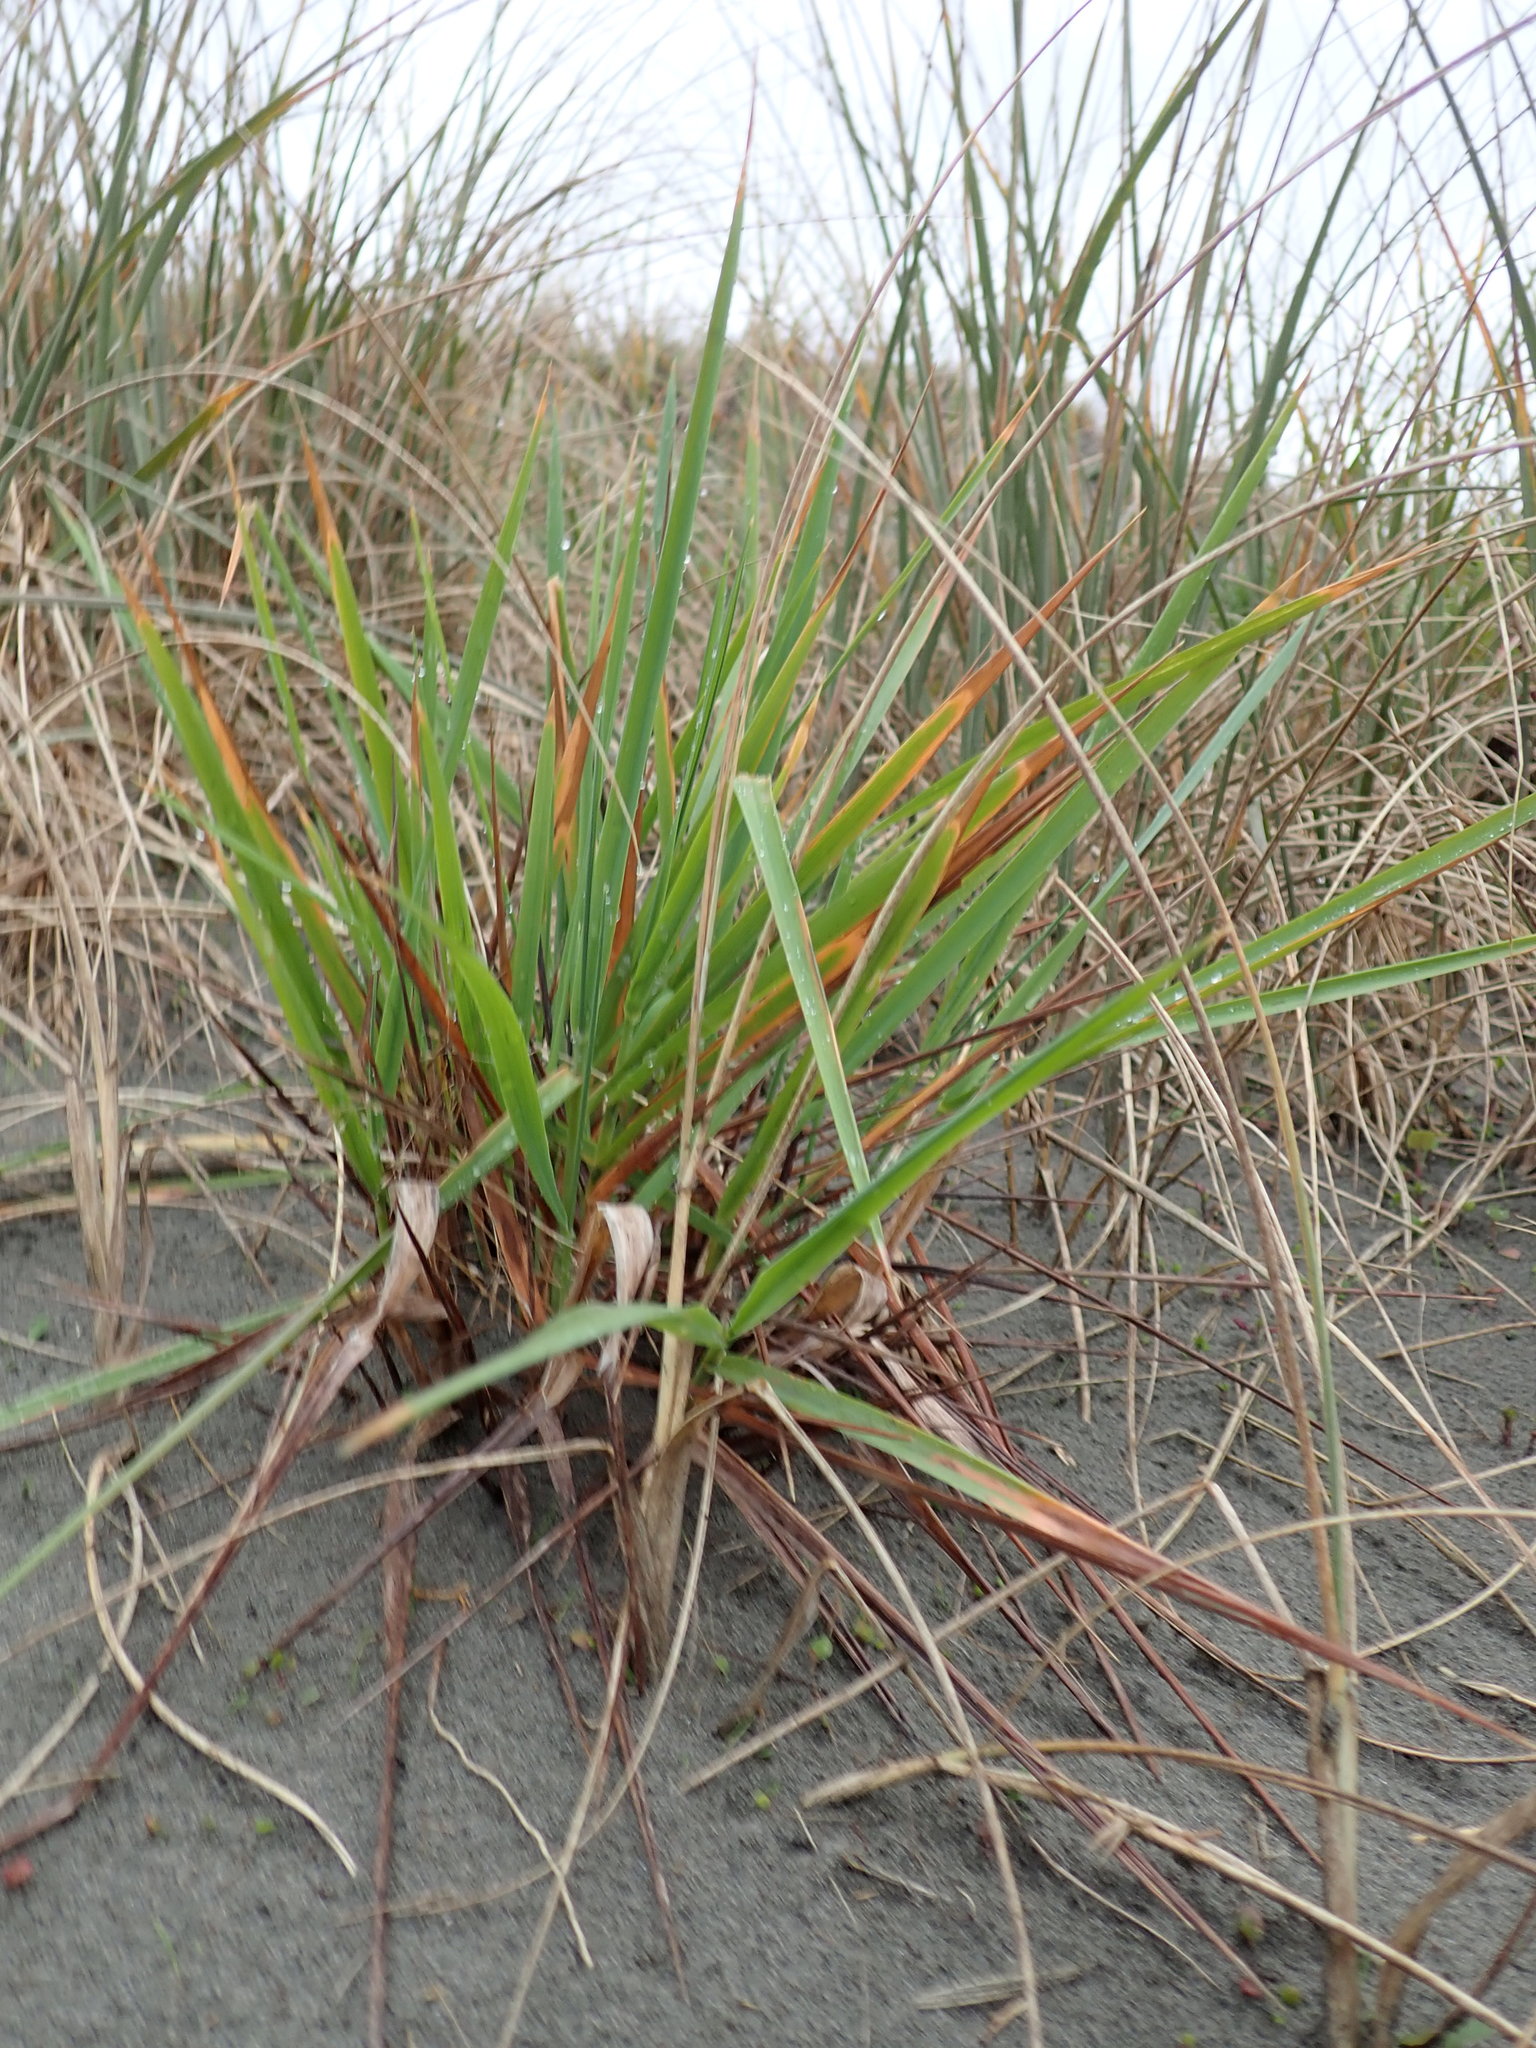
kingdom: Plantae
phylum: Tracheophyta
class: Liliopsida
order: Poales
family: Poaceae
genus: Lachnagrostis
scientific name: Lachnagrostis billardierei
